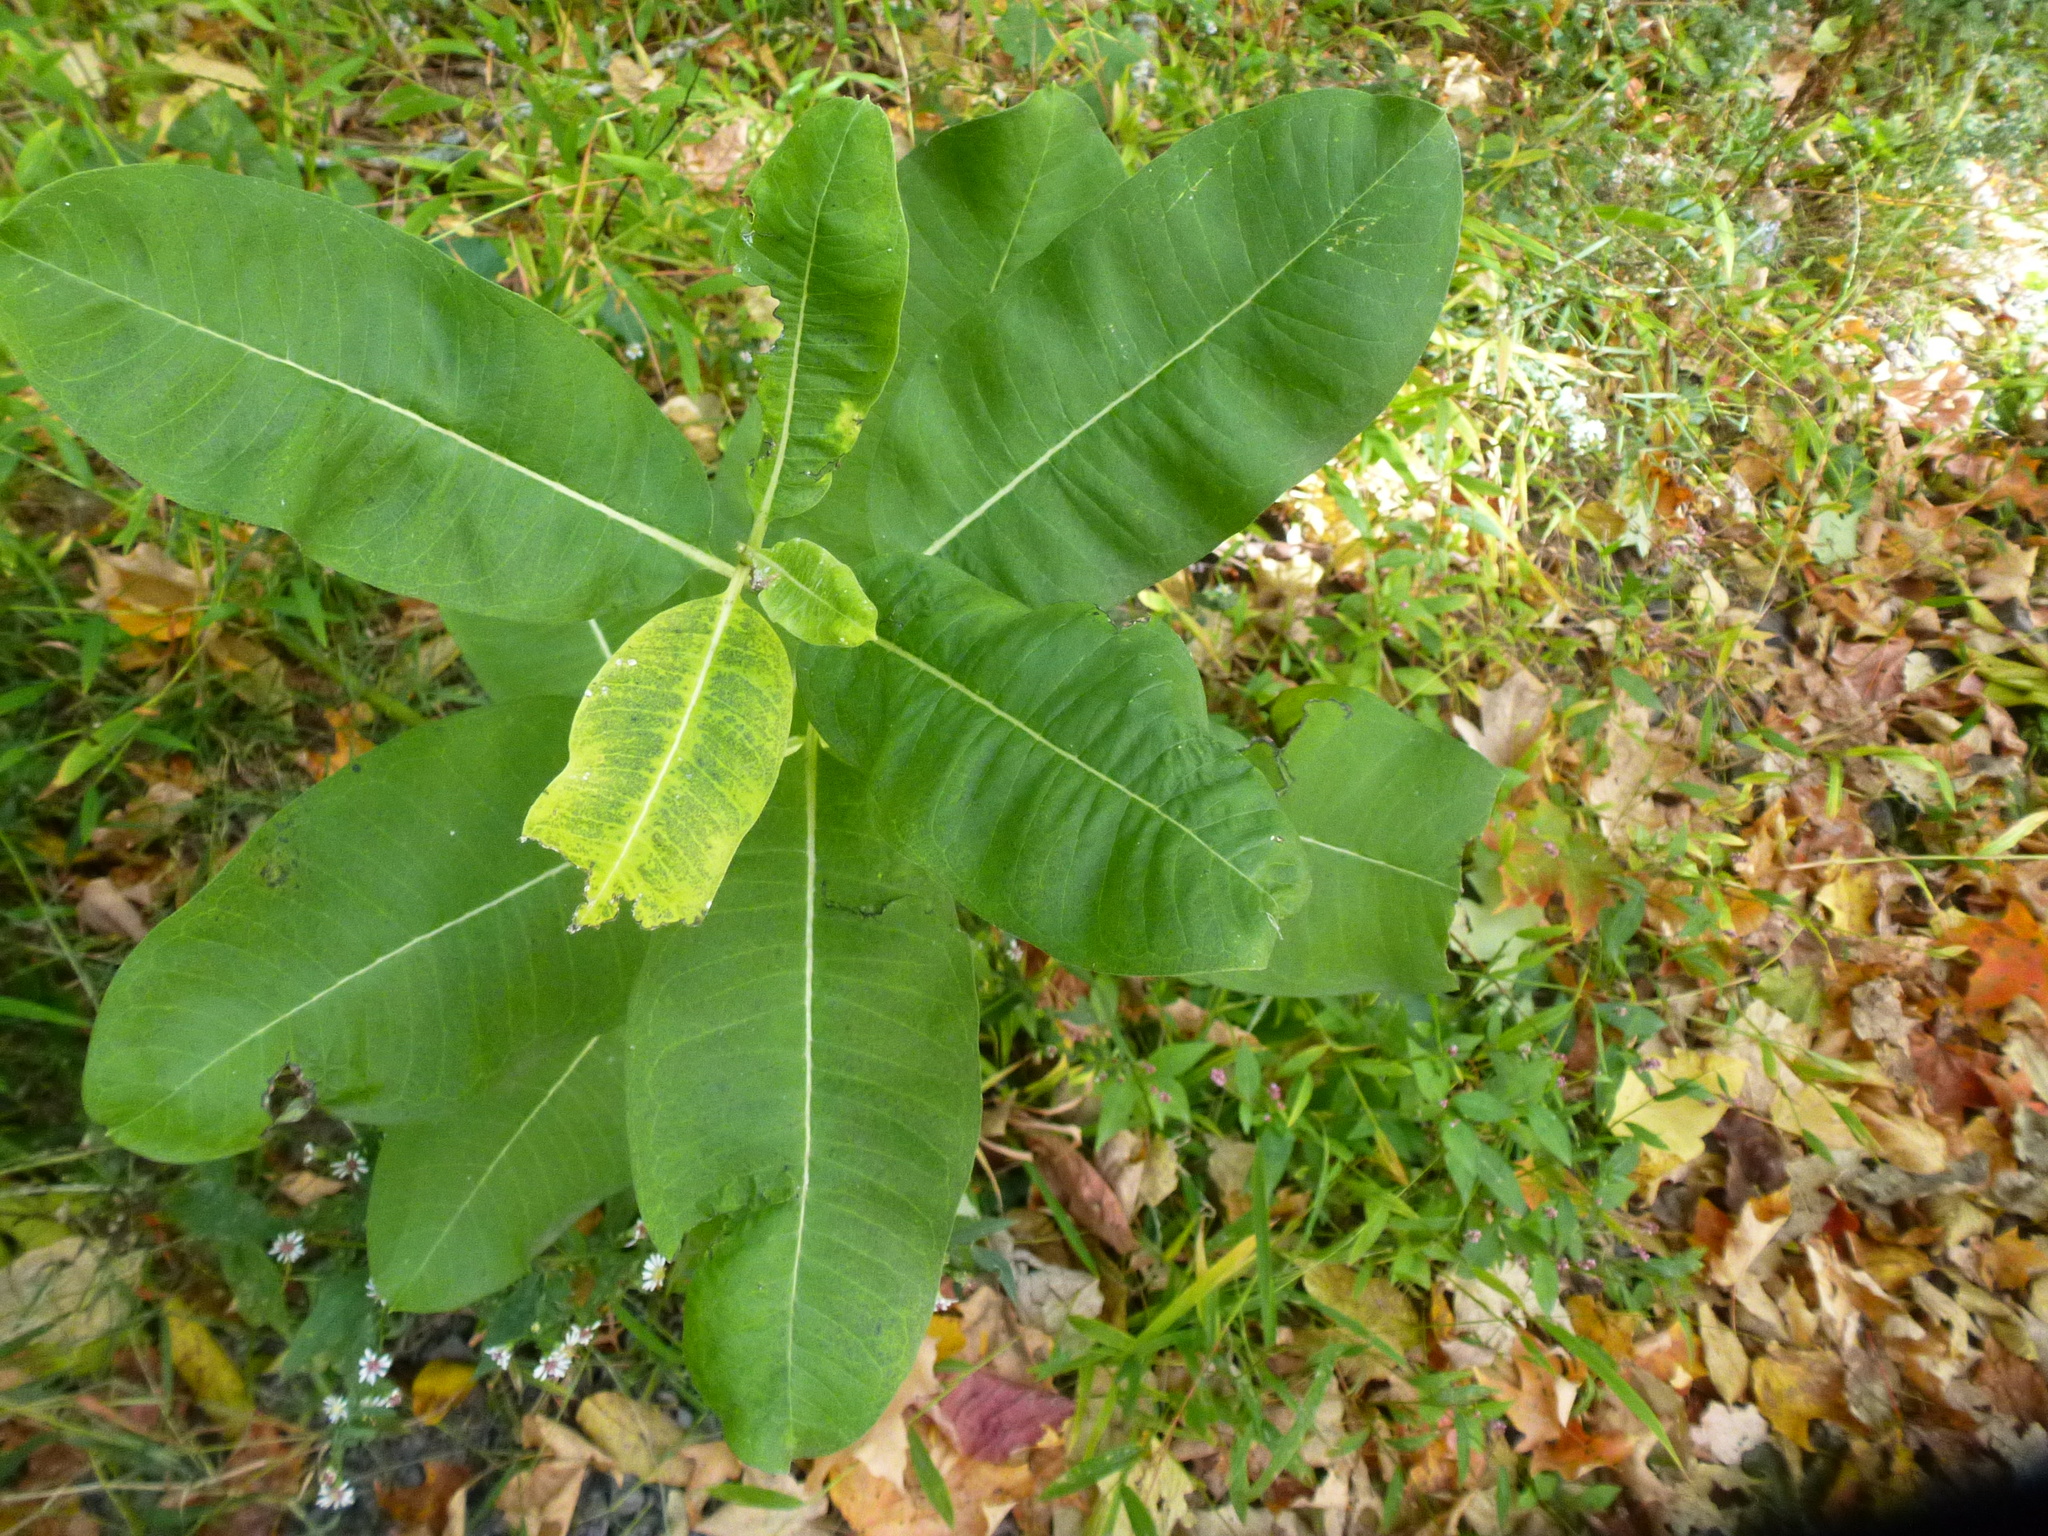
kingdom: Plantae
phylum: Tracheophyta
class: Magnoliopsida
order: Gentianales
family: Apocynaceae
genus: Asclepias
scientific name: Asclepias syriaca
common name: Common milkweed
